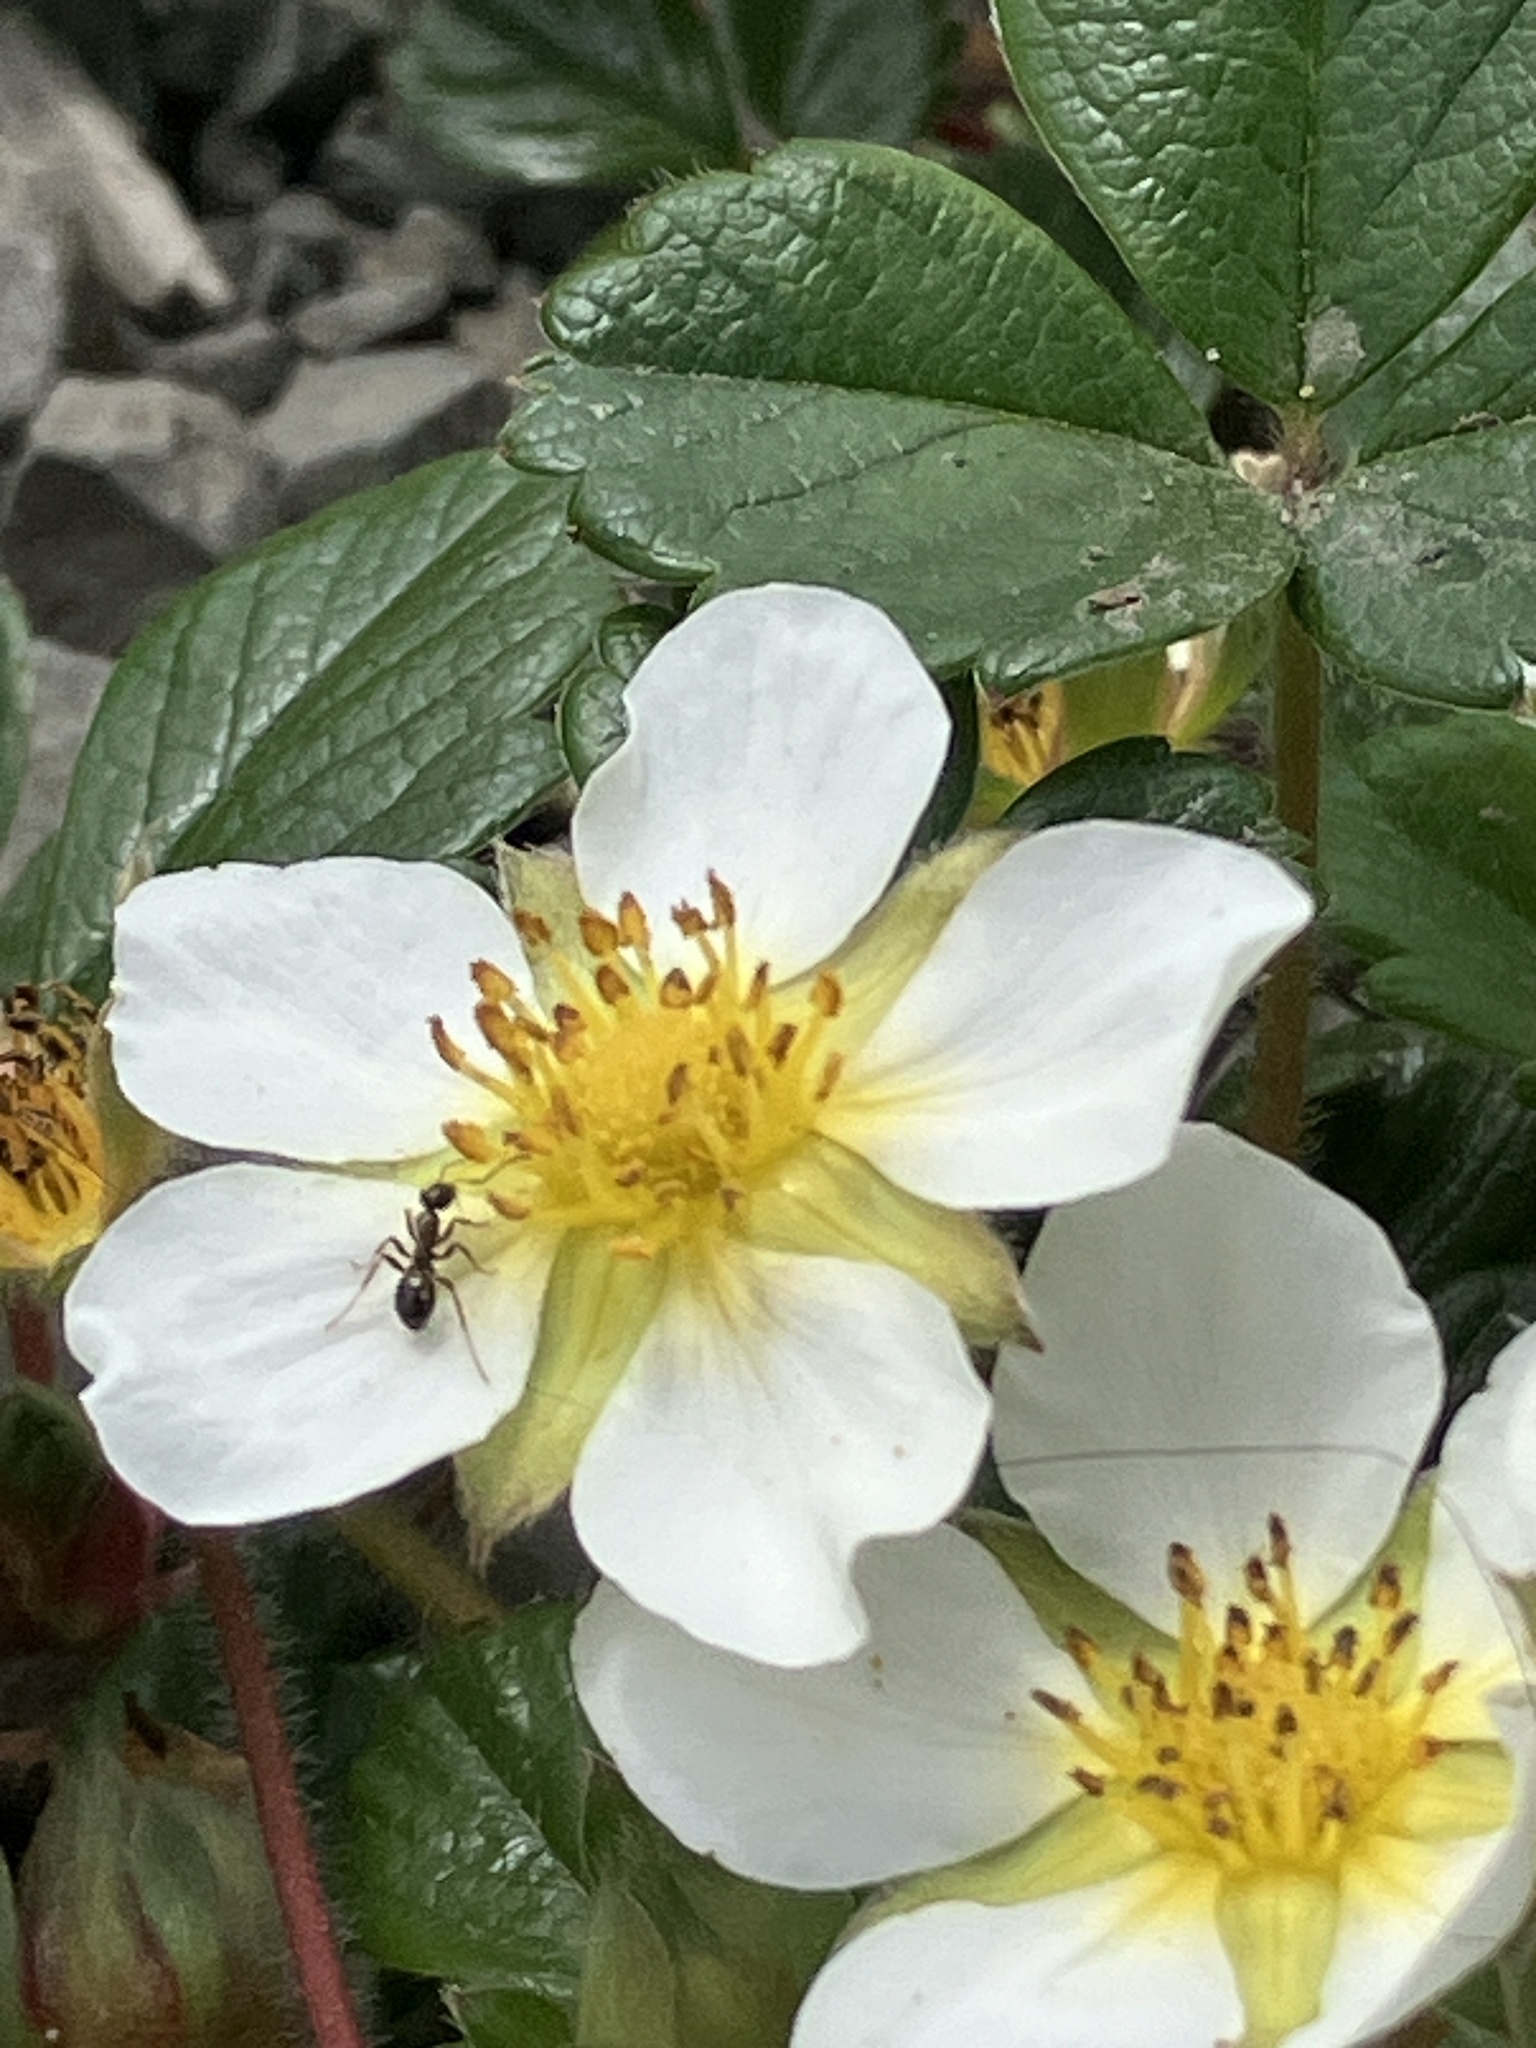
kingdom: Plantae
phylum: Tracheophyta
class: Magnoliopsida
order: Rosales
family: Rosaceae
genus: Fragaria
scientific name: Fragaria chiloensis
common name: Beach strawberry
